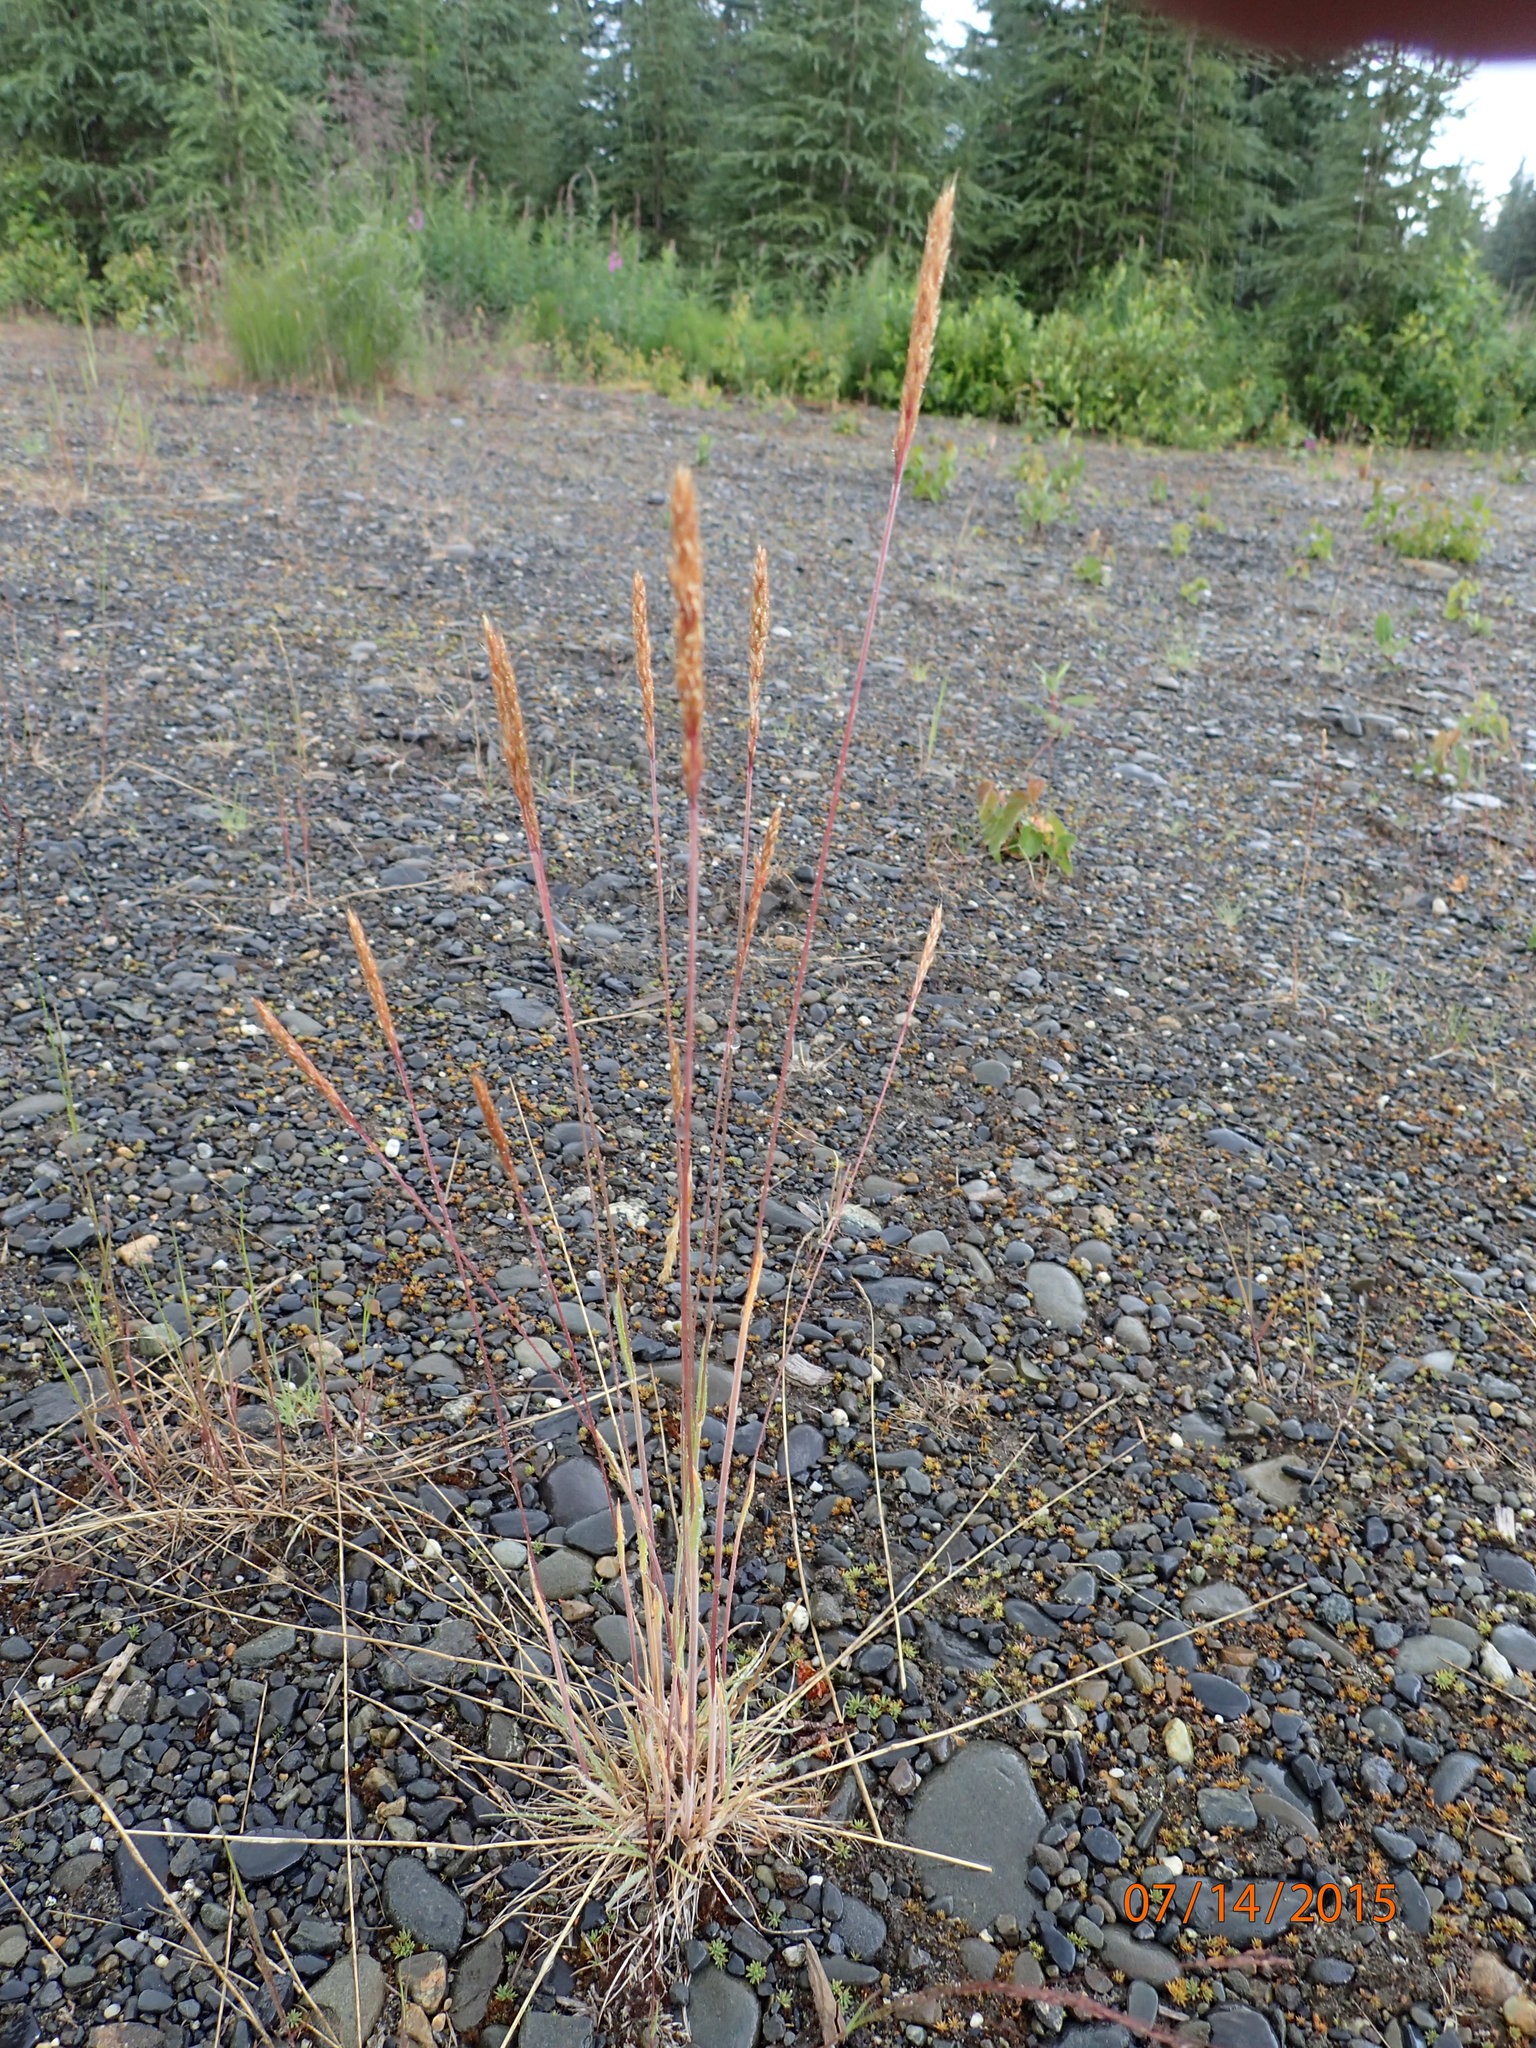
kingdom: Plantae
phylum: Tracheophyta
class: Liliopsida
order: Poales
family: Poaceae
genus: Koeleria
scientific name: Koeleria spicata
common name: Mountain trisetum
